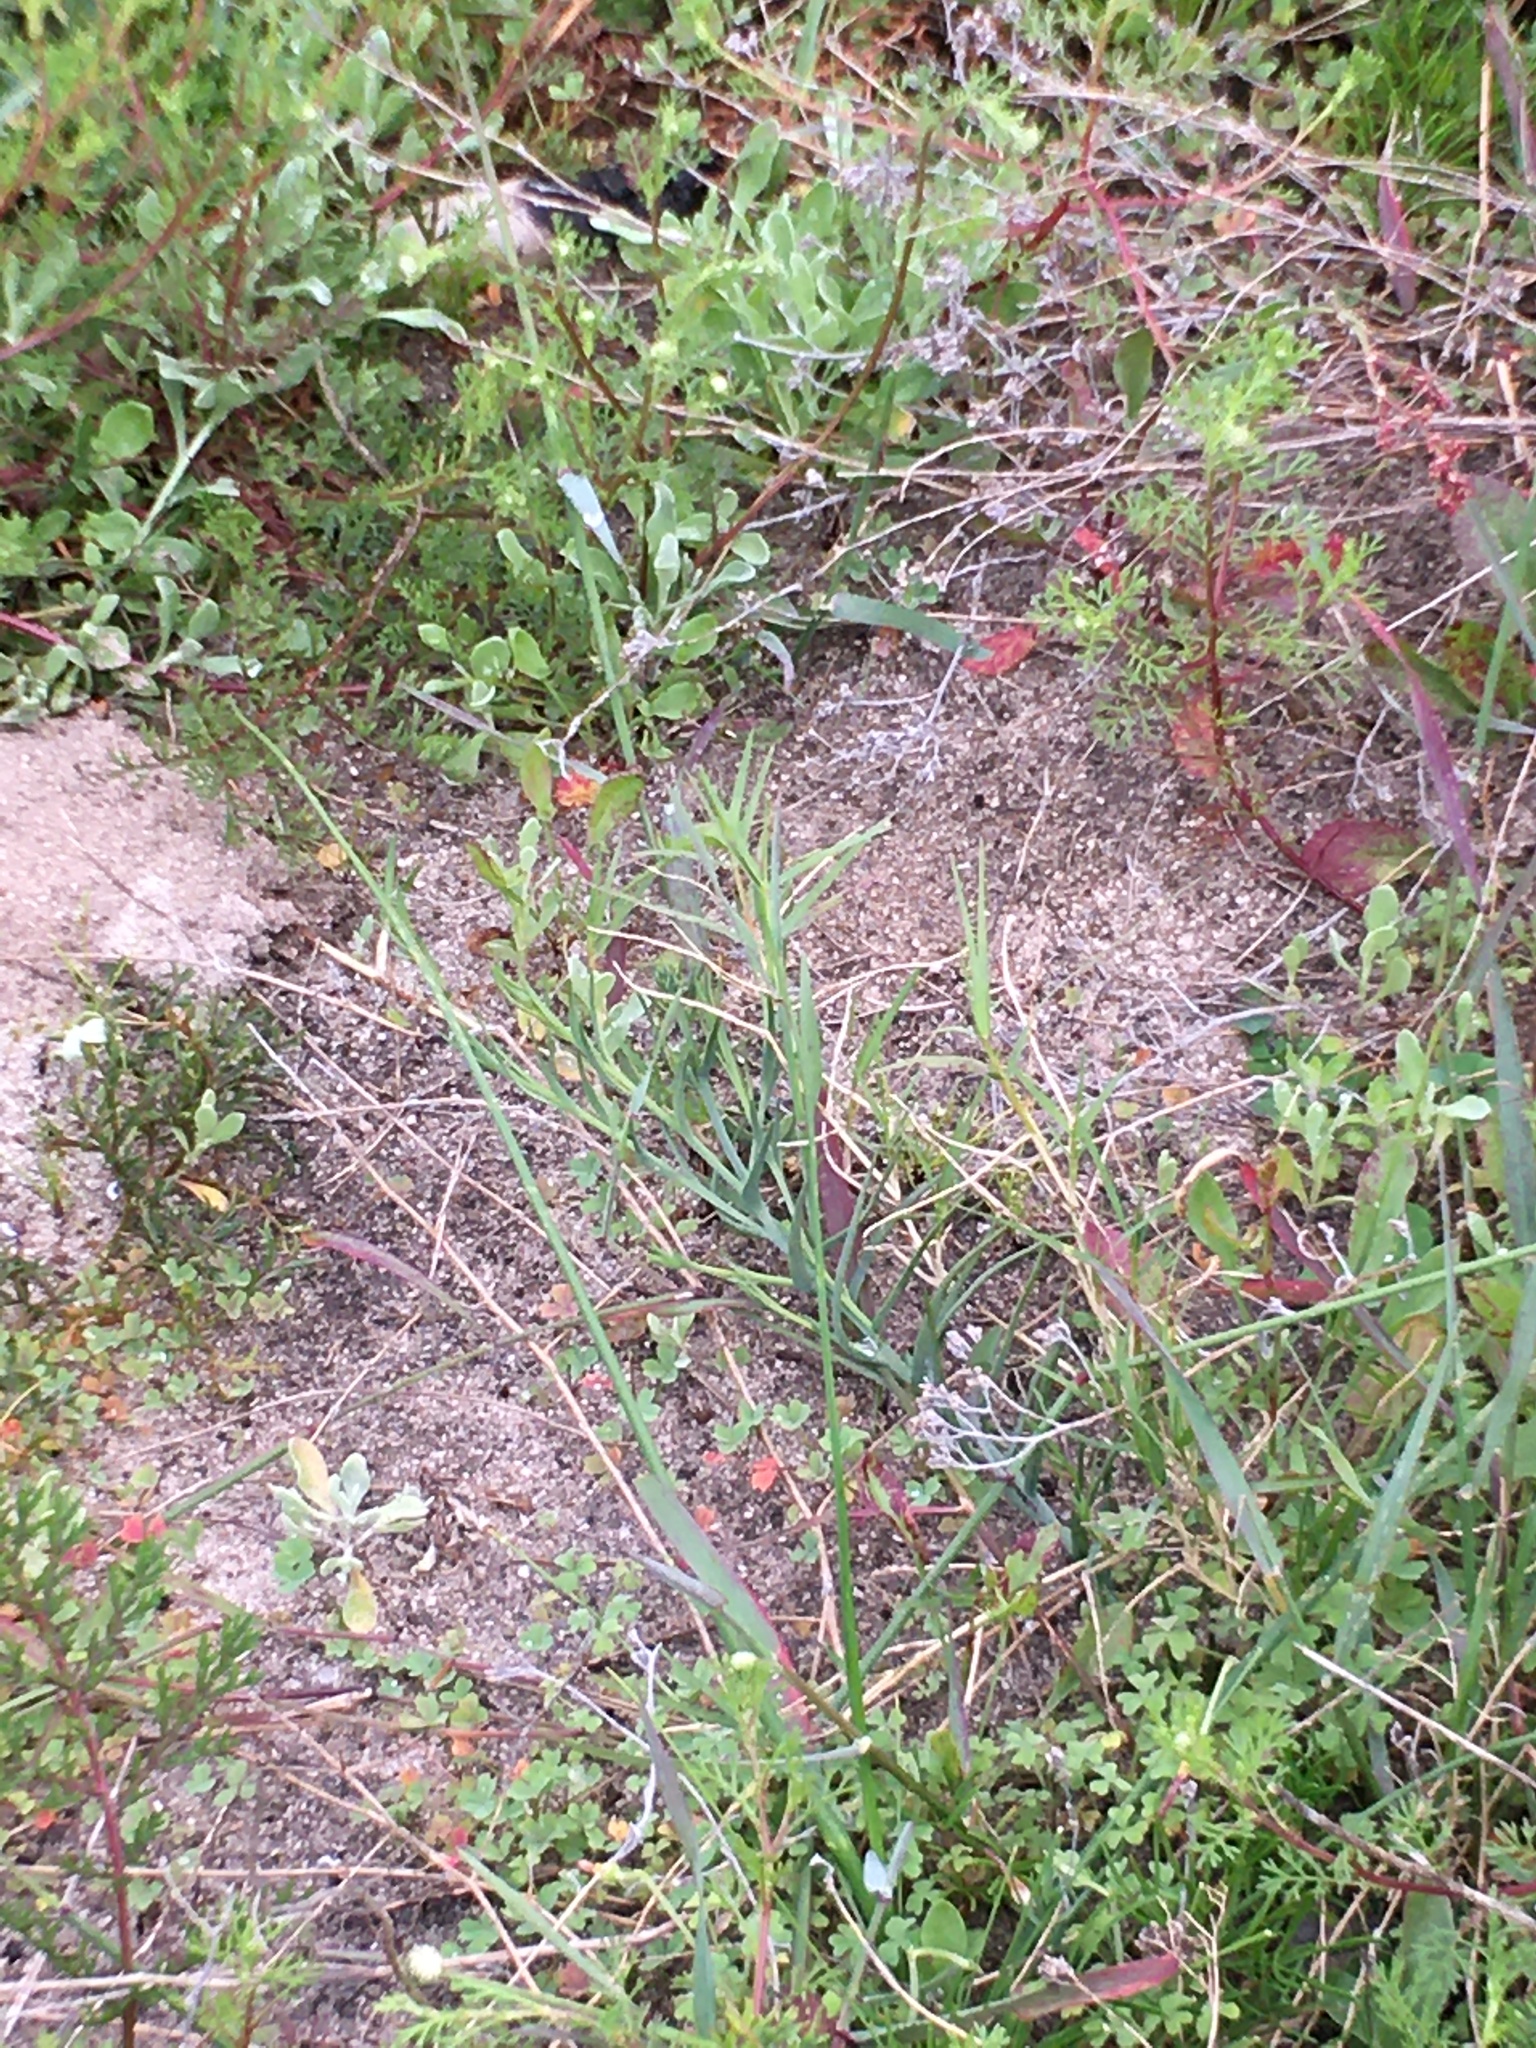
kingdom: Plantae
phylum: Tracheophyta
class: Magnoliopsida
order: Santalales
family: Thesiaceae
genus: Thesium
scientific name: Thesium
